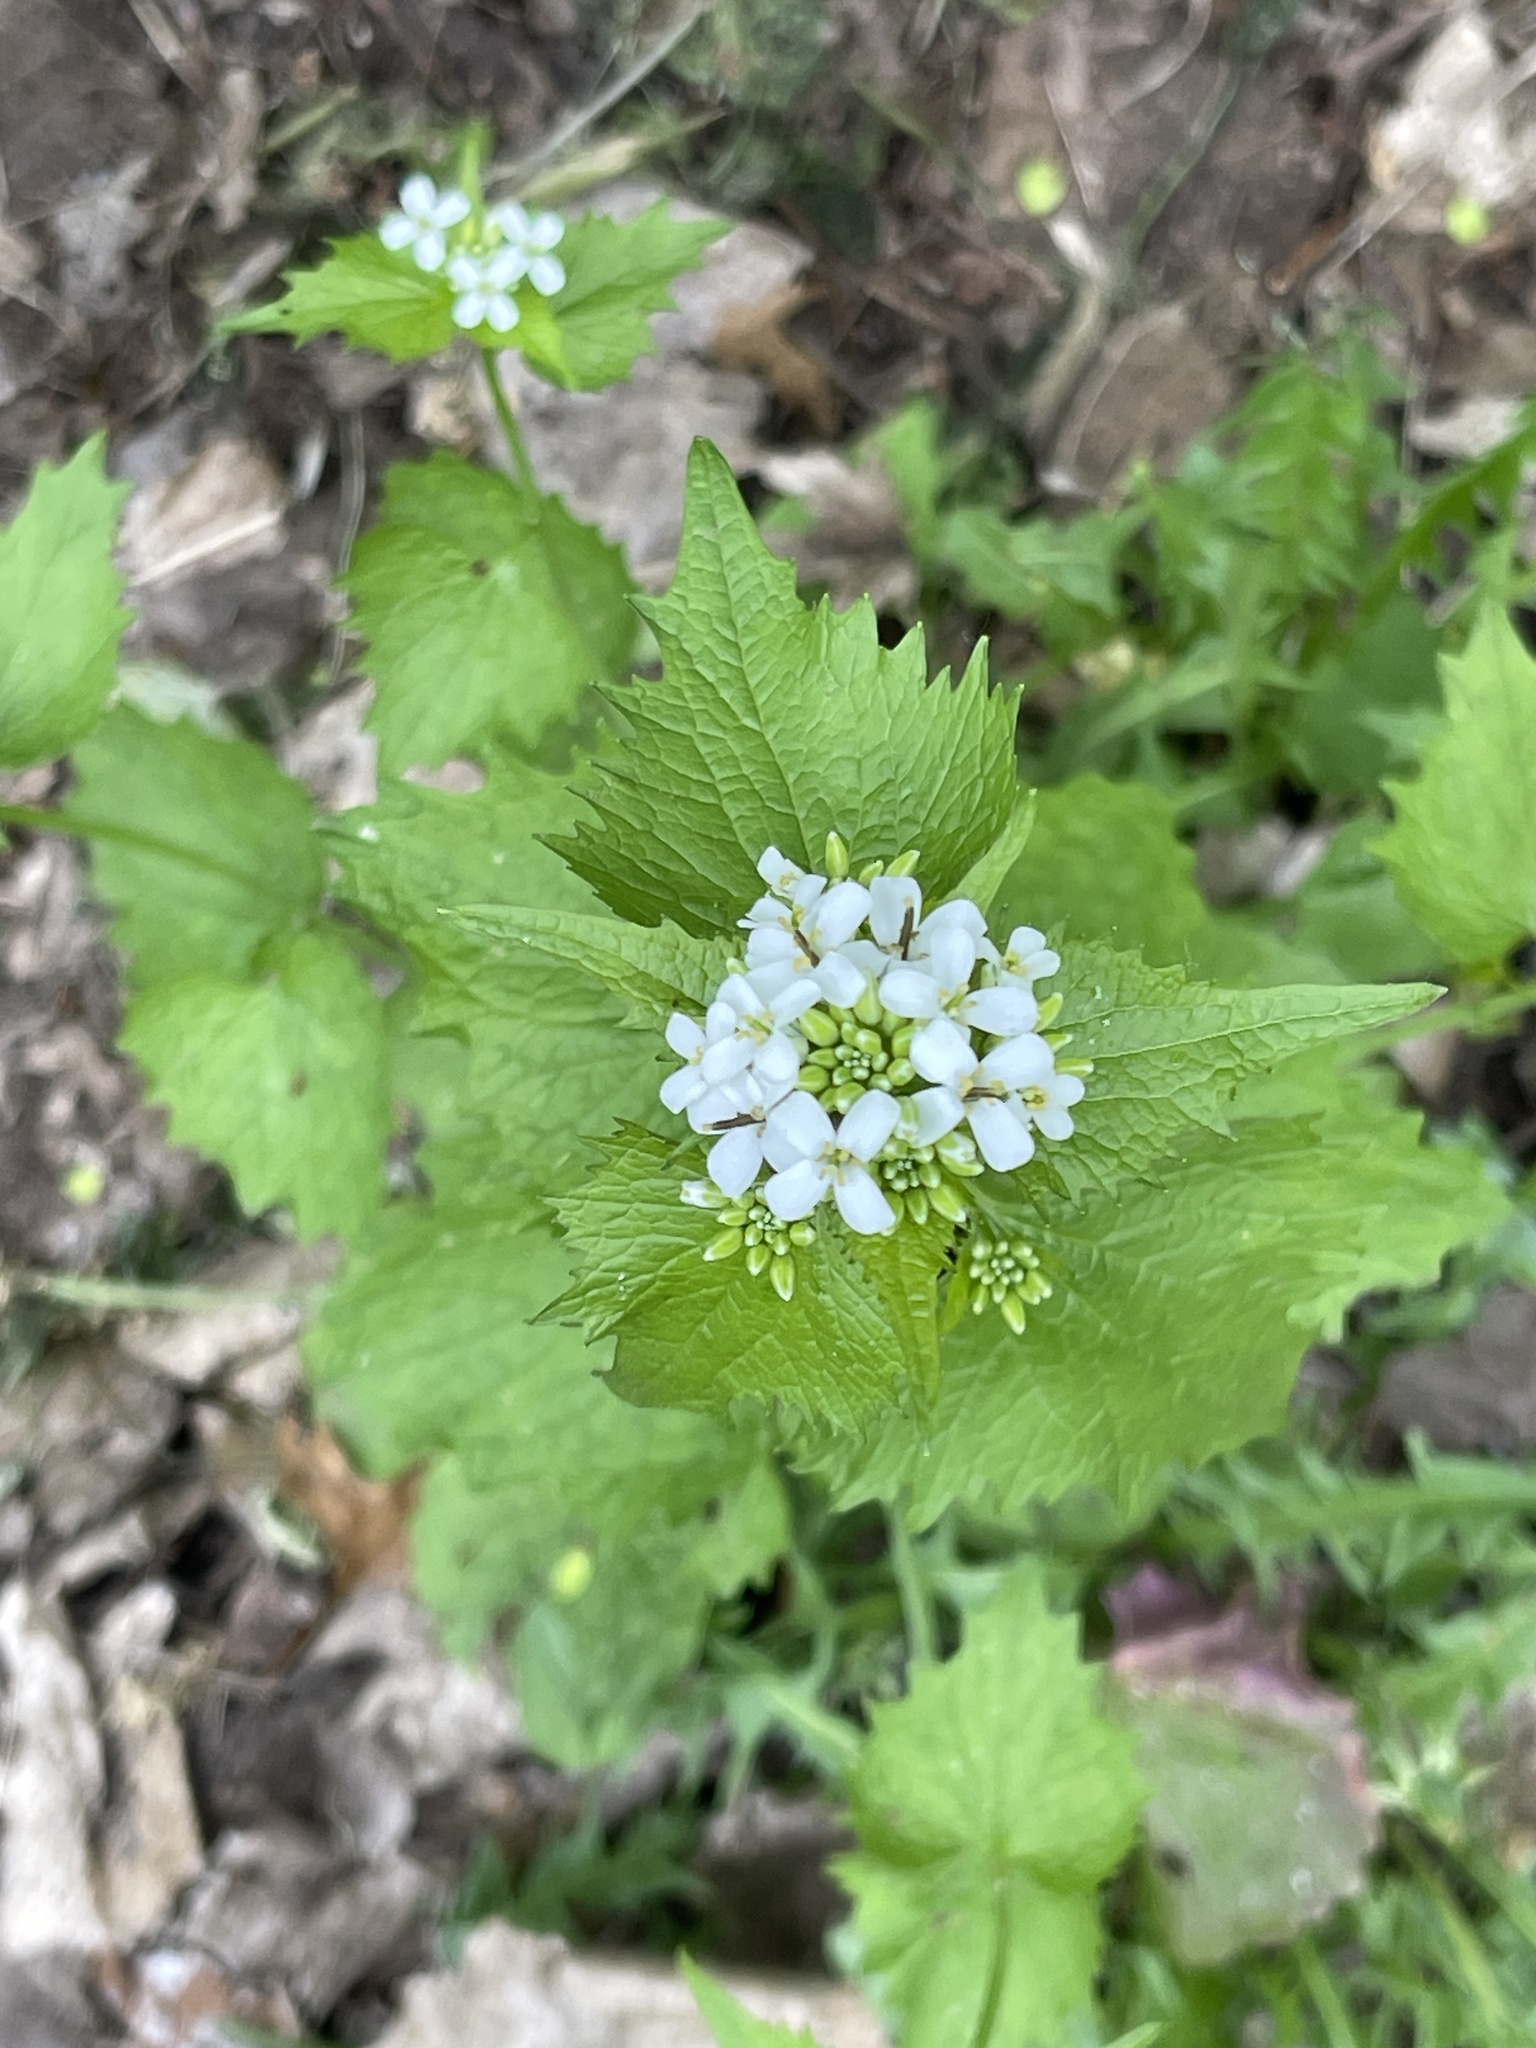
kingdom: Plantae
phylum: Tracheophyta
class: Magnoliopsida
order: Brassicales
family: Brassicaceae
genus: Alliaria
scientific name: Alliaria petiolata
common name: Garlic mustard
